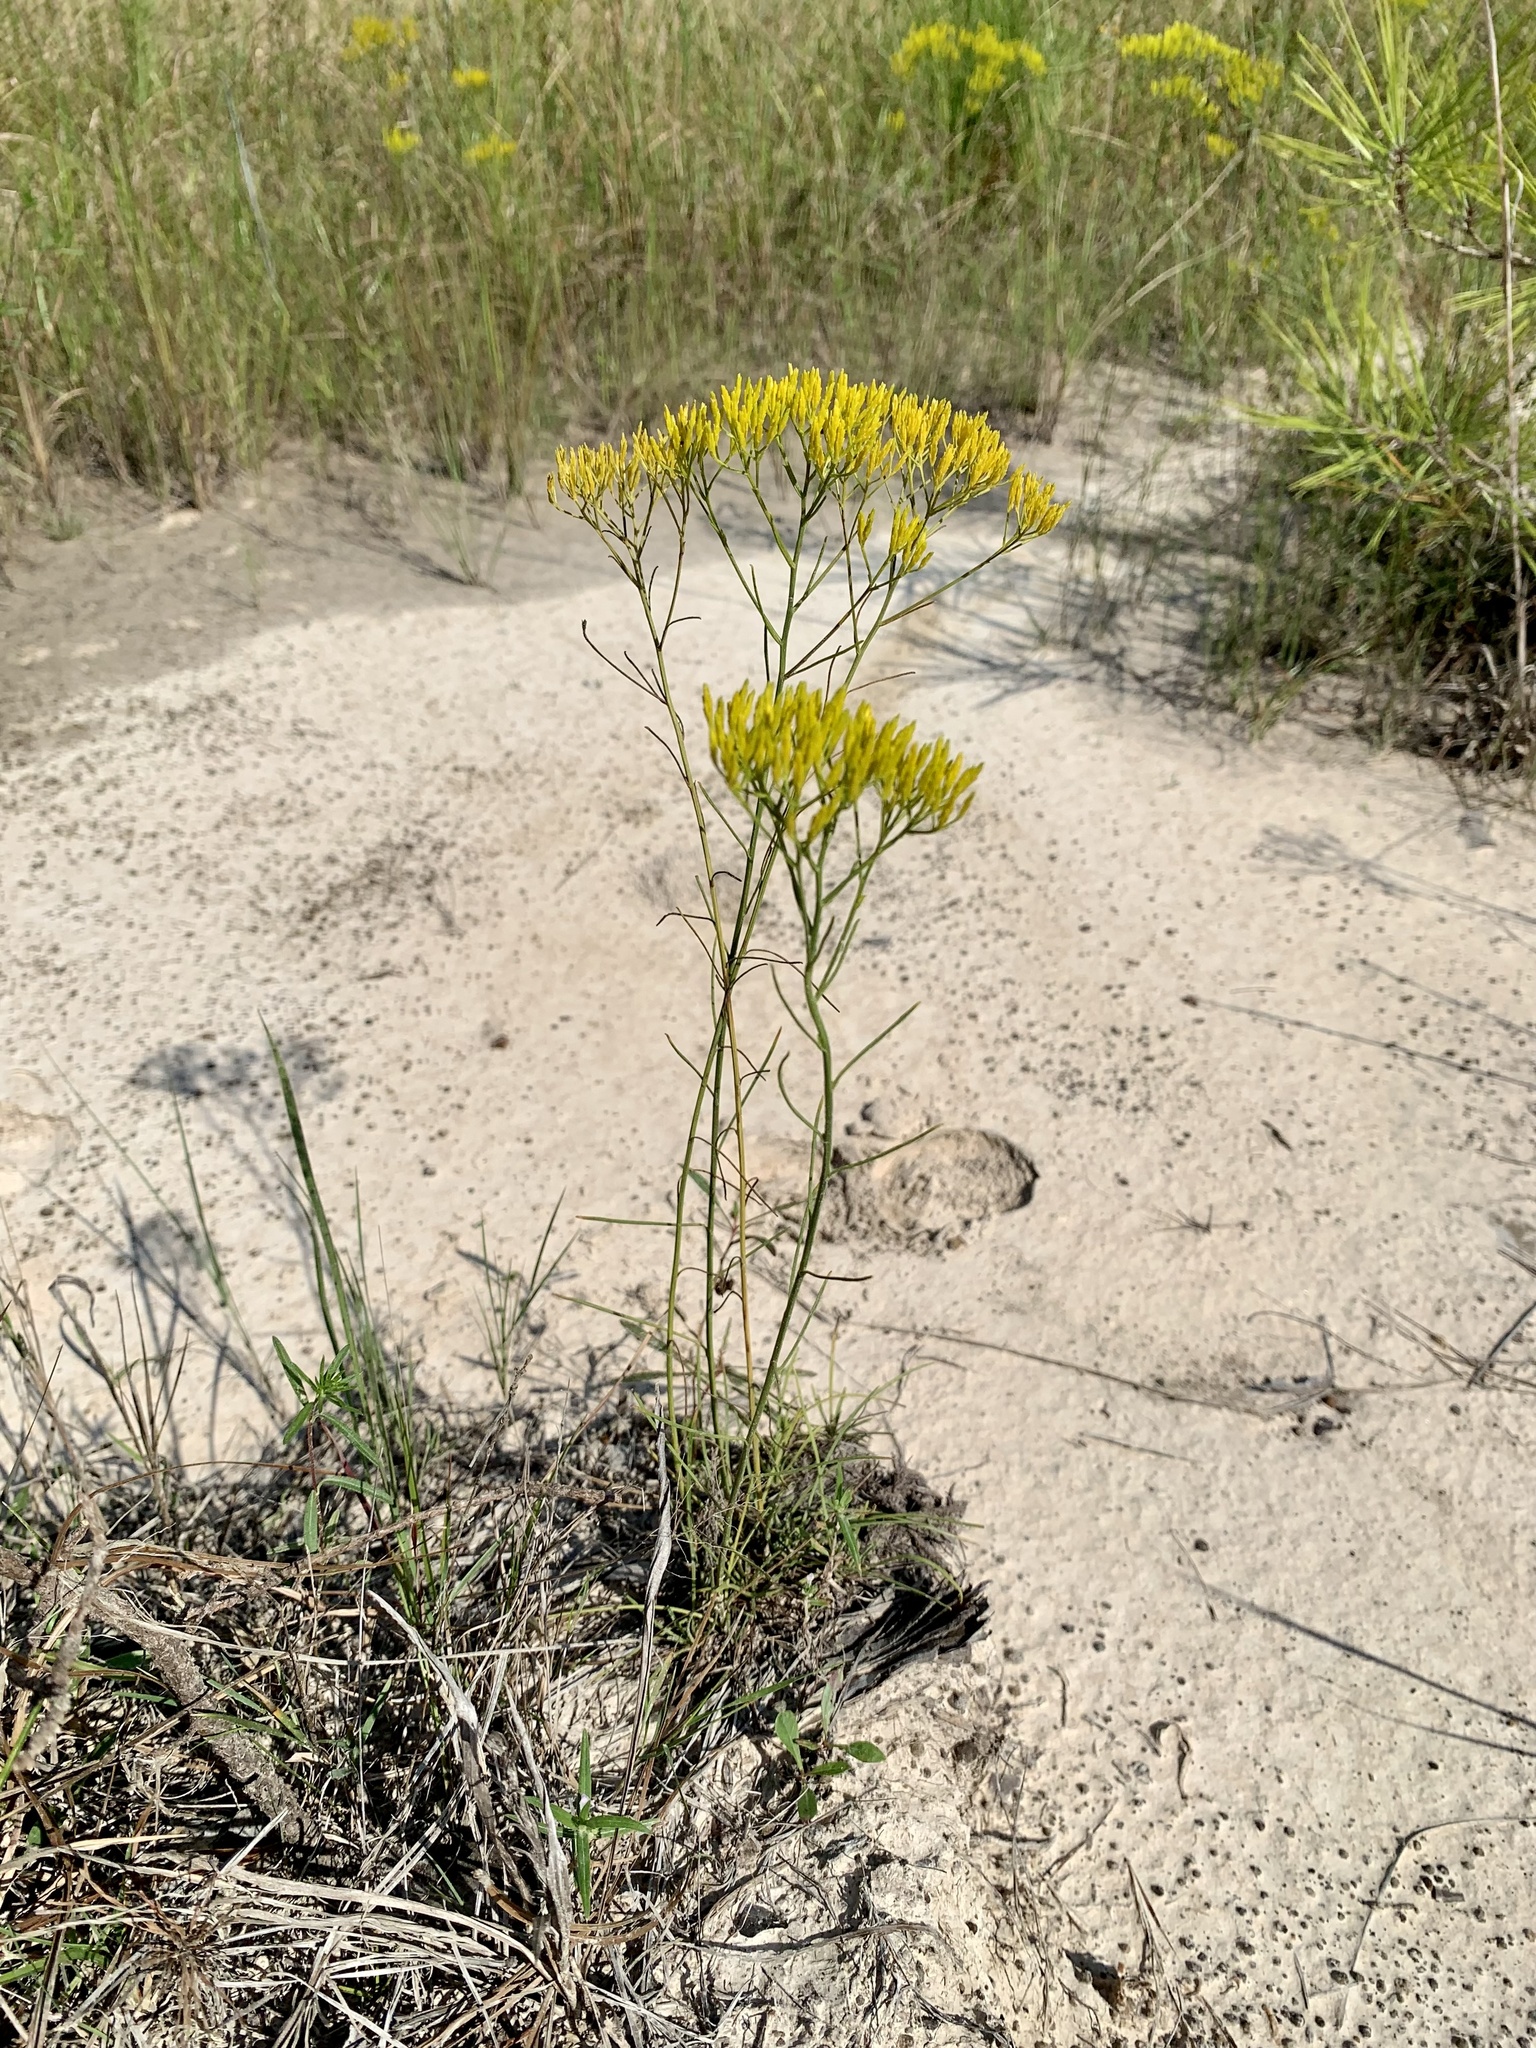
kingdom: Plantae
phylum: Tracheophyta
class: Magnoliopsida
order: Asterales
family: Asteraceae
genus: Bigelowia
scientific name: Bigelowia nuttallii
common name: Nuttall's rayless-goldenrod
